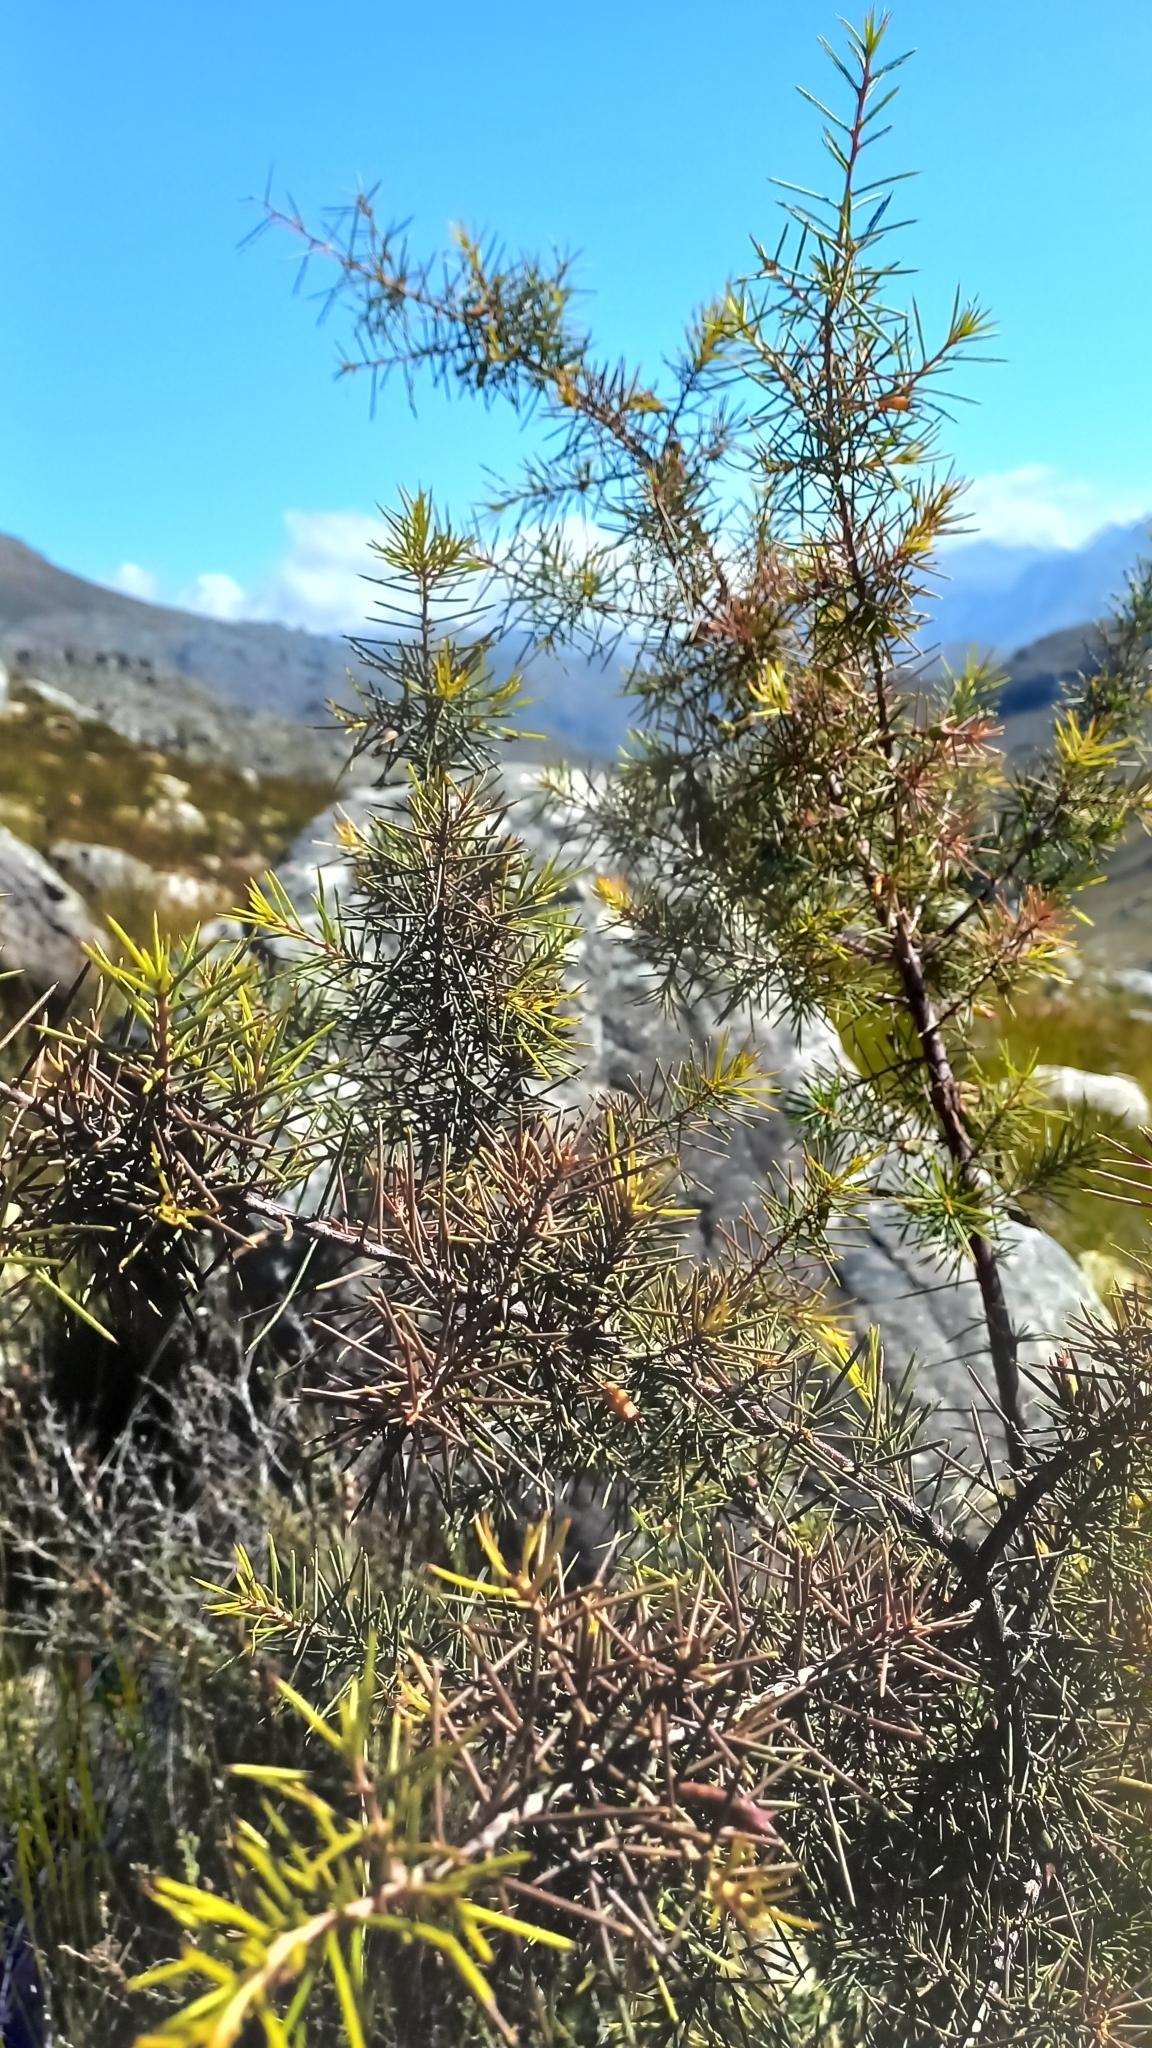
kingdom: Plantae
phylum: Tracheophyta
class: Magnoliopsida
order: Proteales
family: Proteaceae
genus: Hakea
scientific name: Hakea sericea
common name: Needle bush
